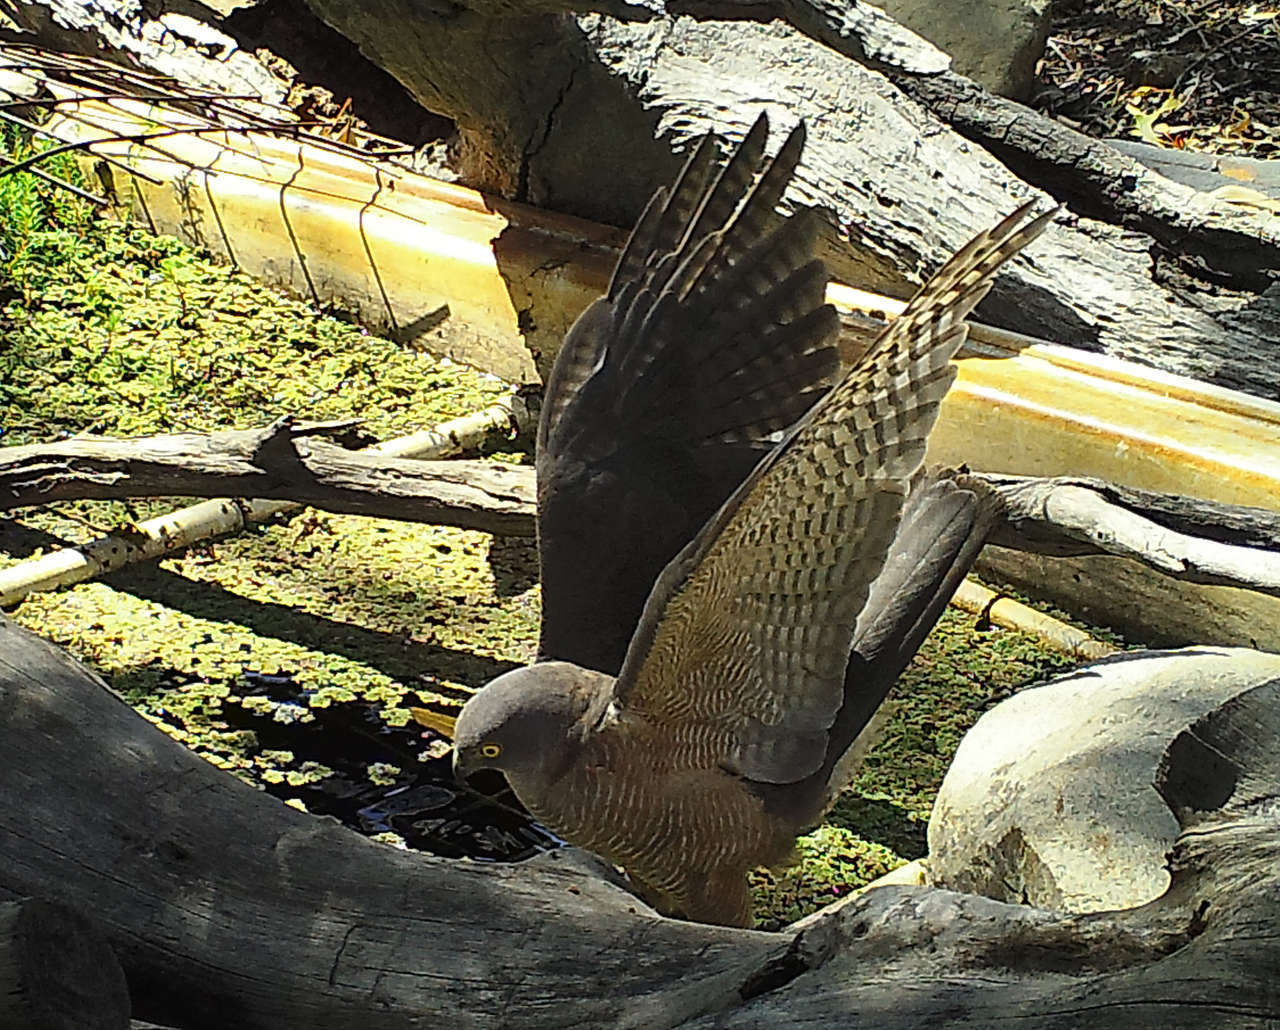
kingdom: Animalia
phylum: Chordata
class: Aves
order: Accipitriformes
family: Accipitridae
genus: Accipiter
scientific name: Accipiter fasciatus
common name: Brown goshawk
